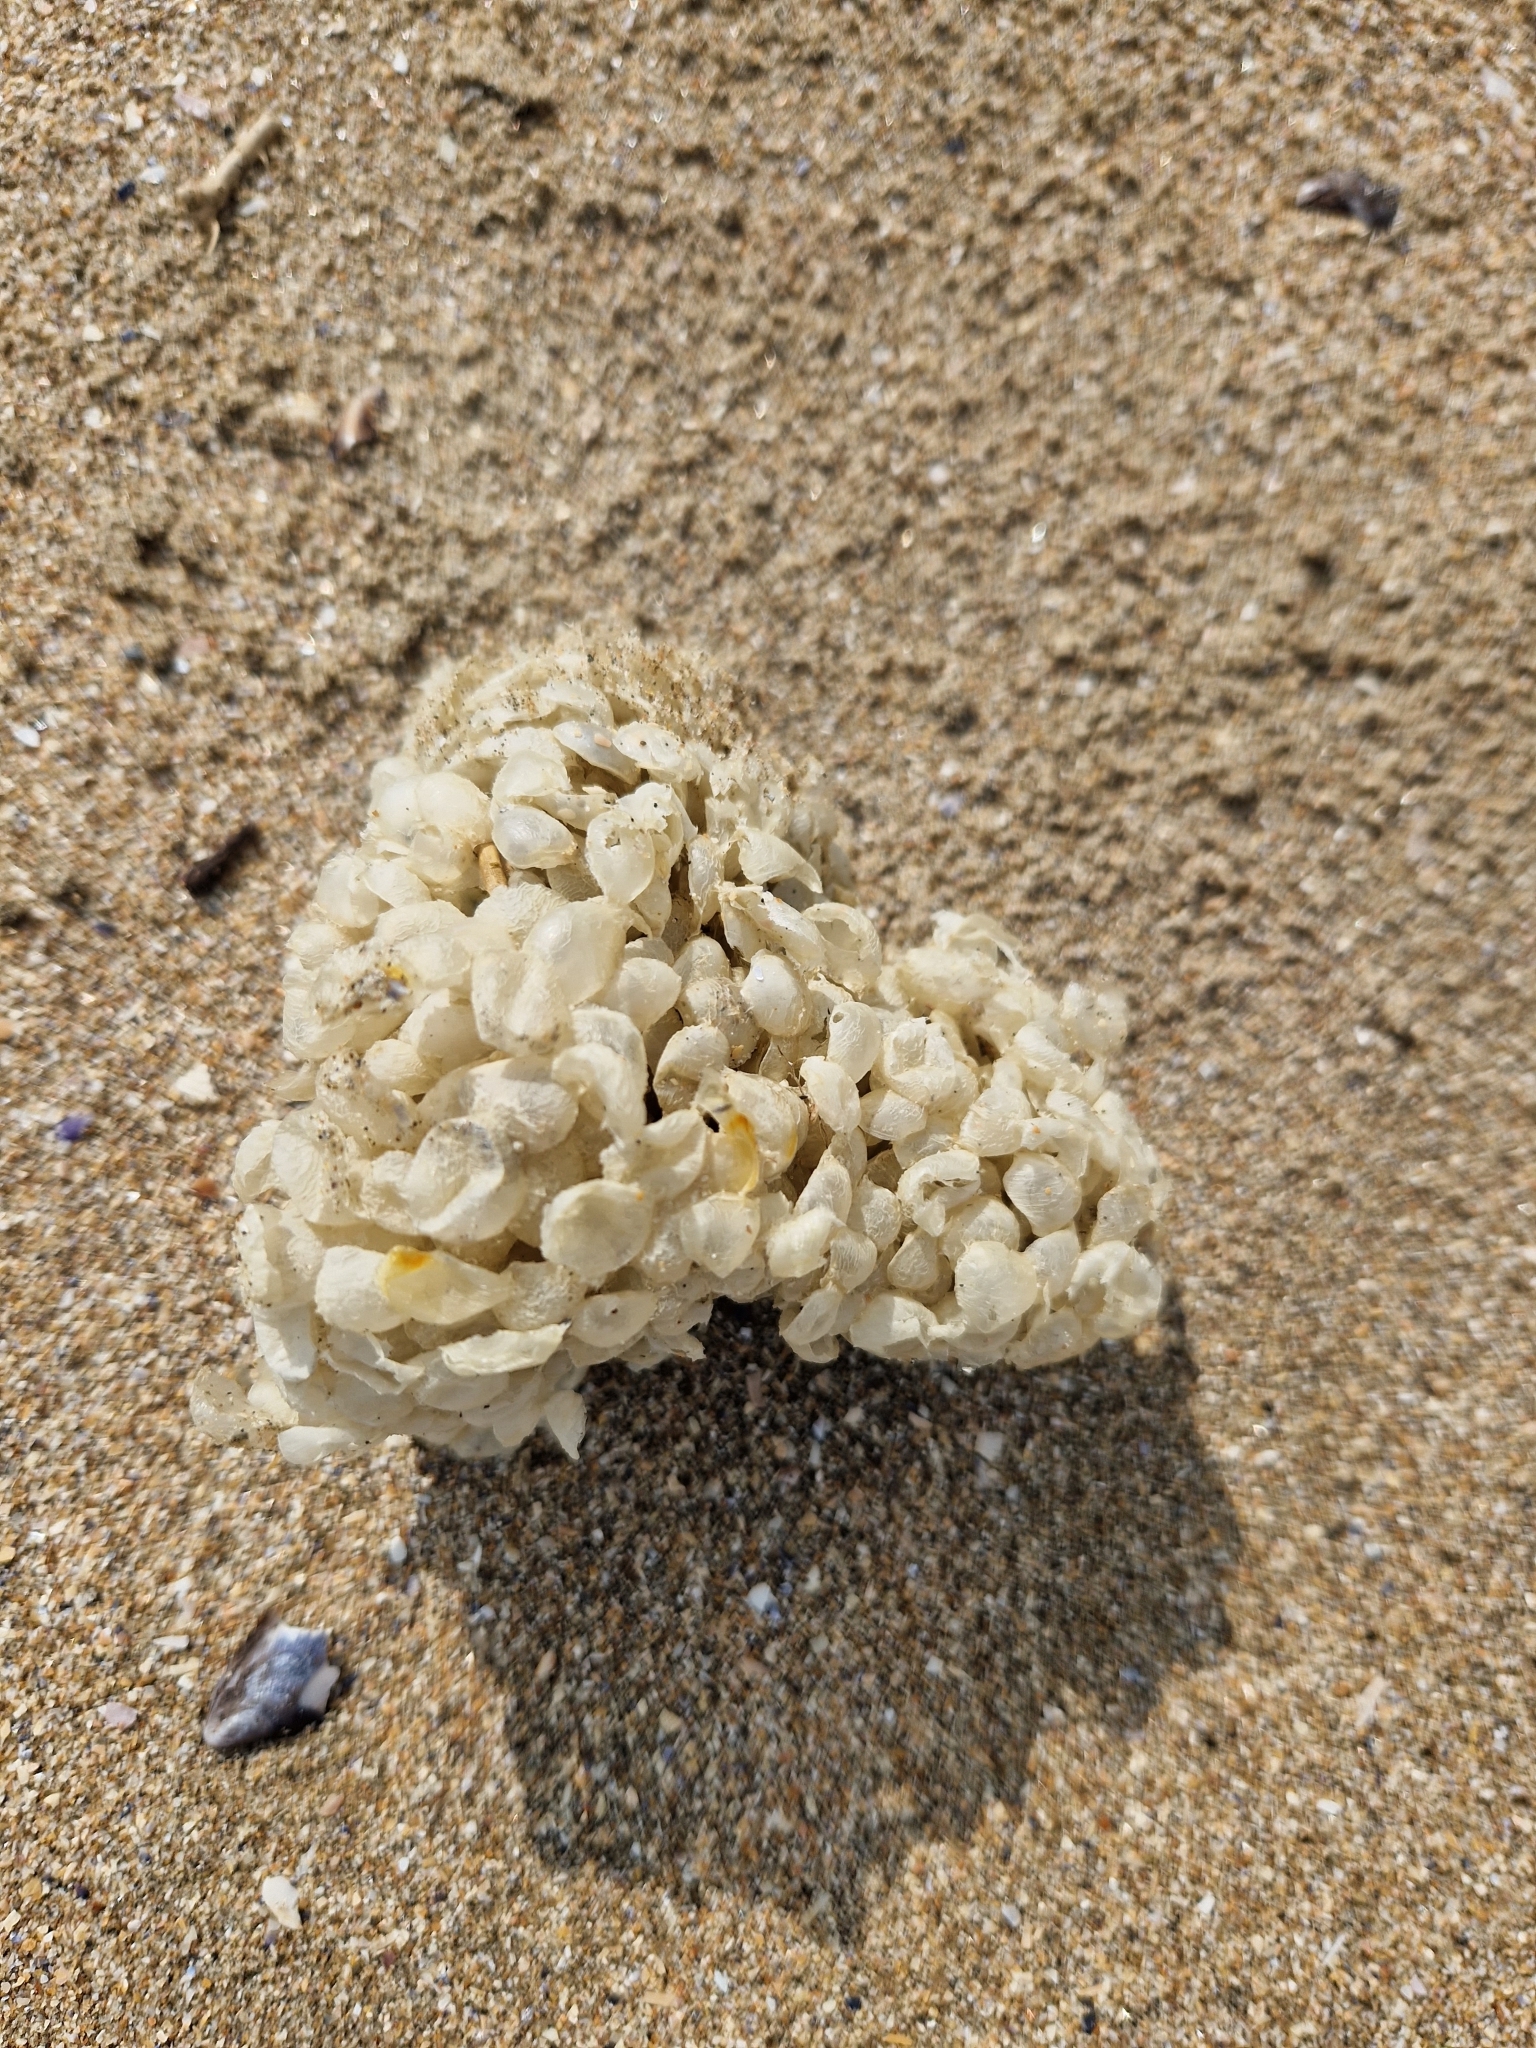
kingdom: Animalia
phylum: Mollusca
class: Gastropoda
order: Neogastropoda
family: Buccinidae
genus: Buccinum
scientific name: Buccinum undatum
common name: Common whelk
